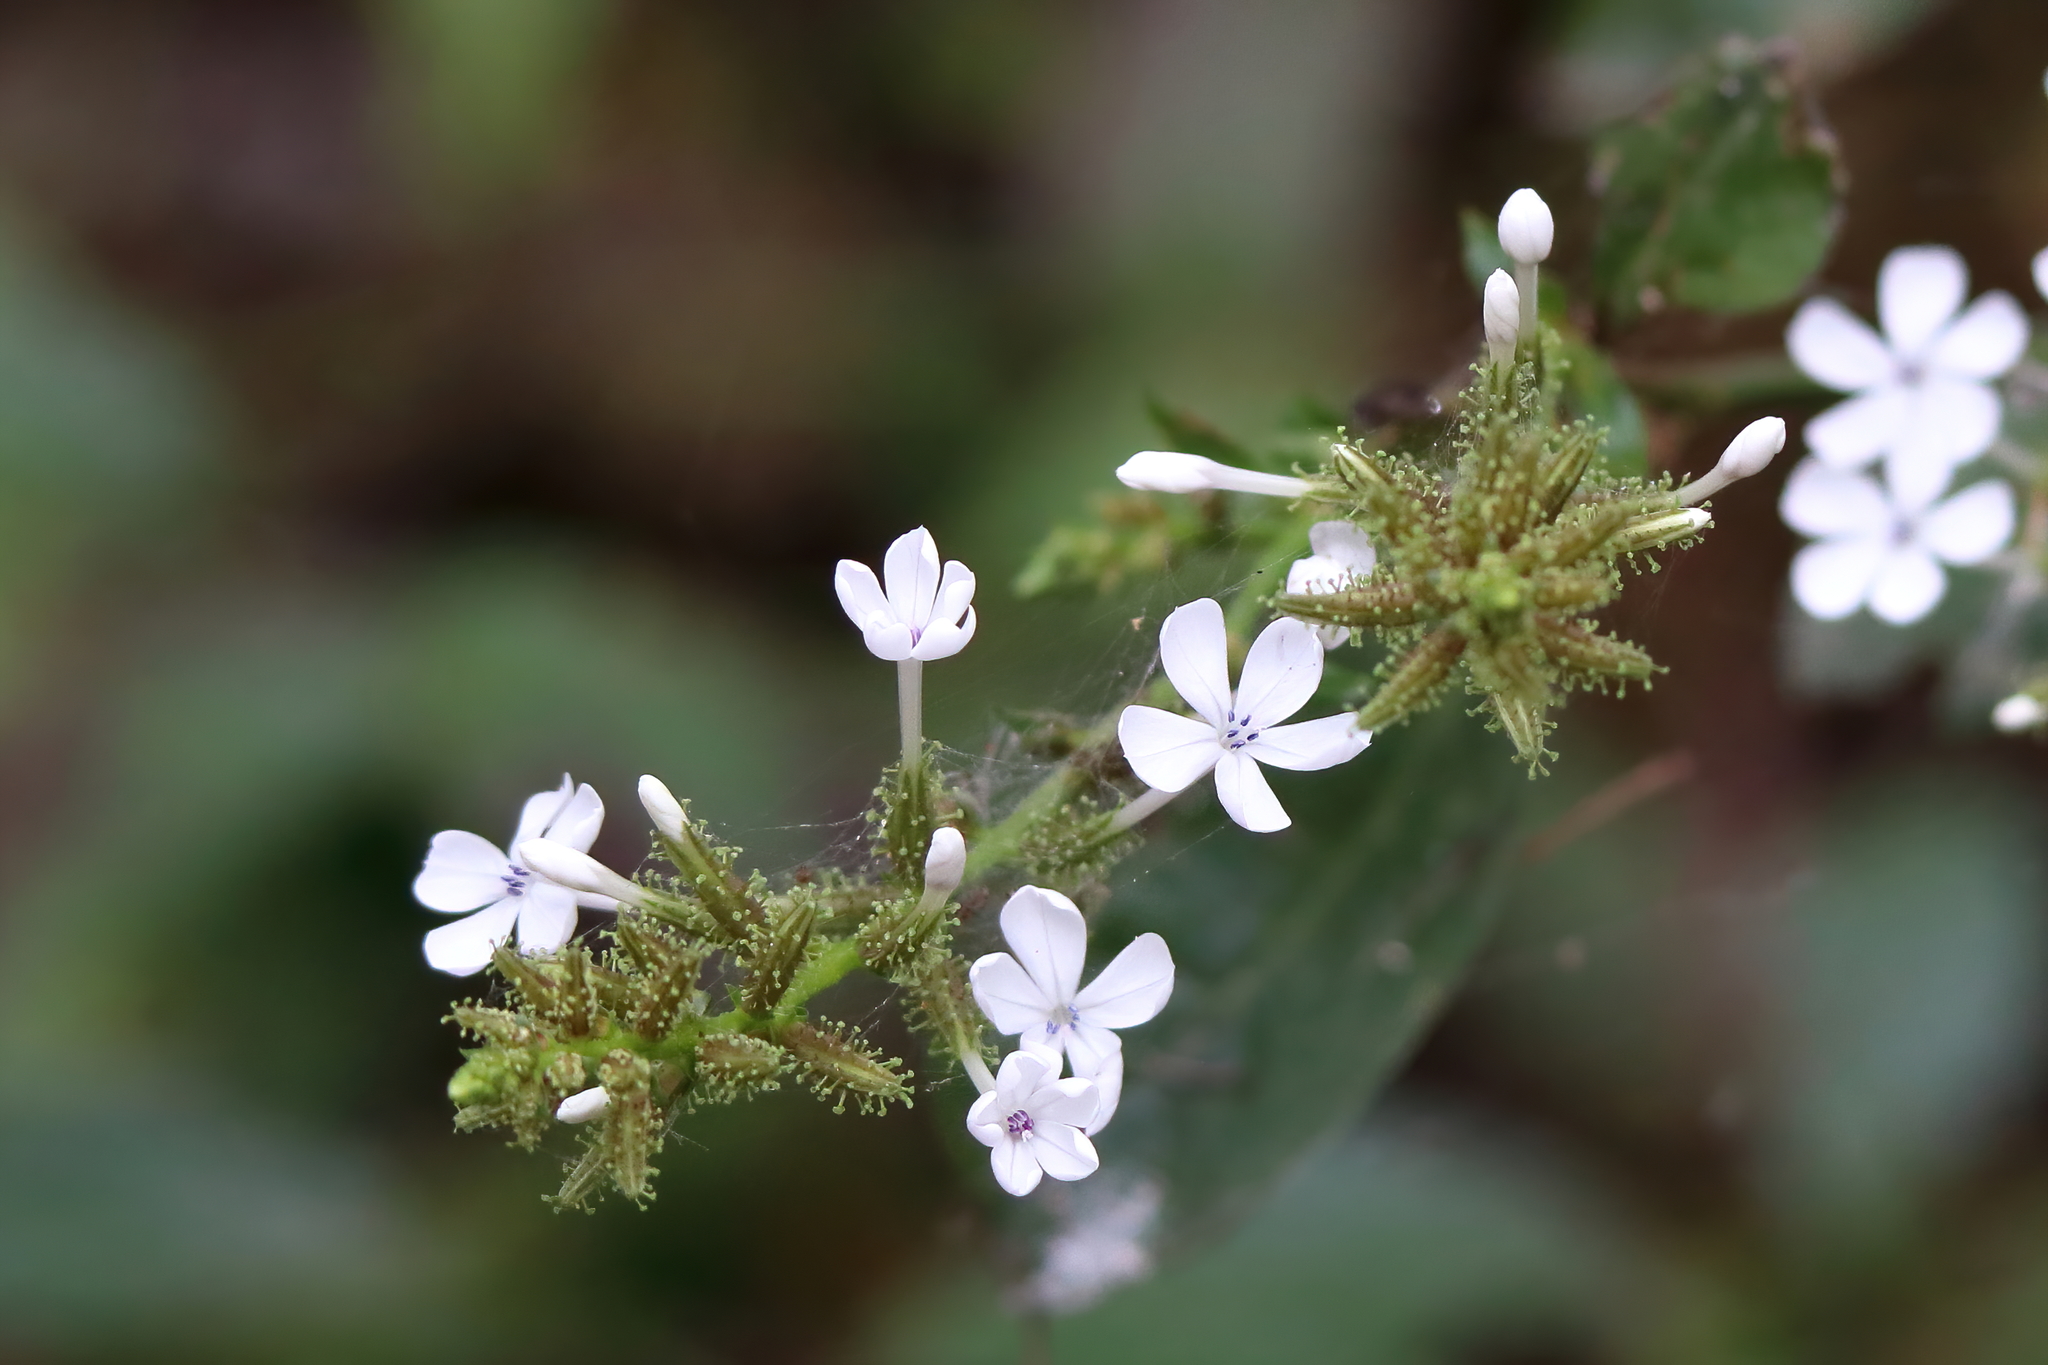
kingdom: Plantae
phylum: Tracheophyta
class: Magnoliopsida
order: Caryophyllales
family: Plumbaginaceae
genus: Plumbago
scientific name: Plumbago zeylanica
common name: Doctorbush
